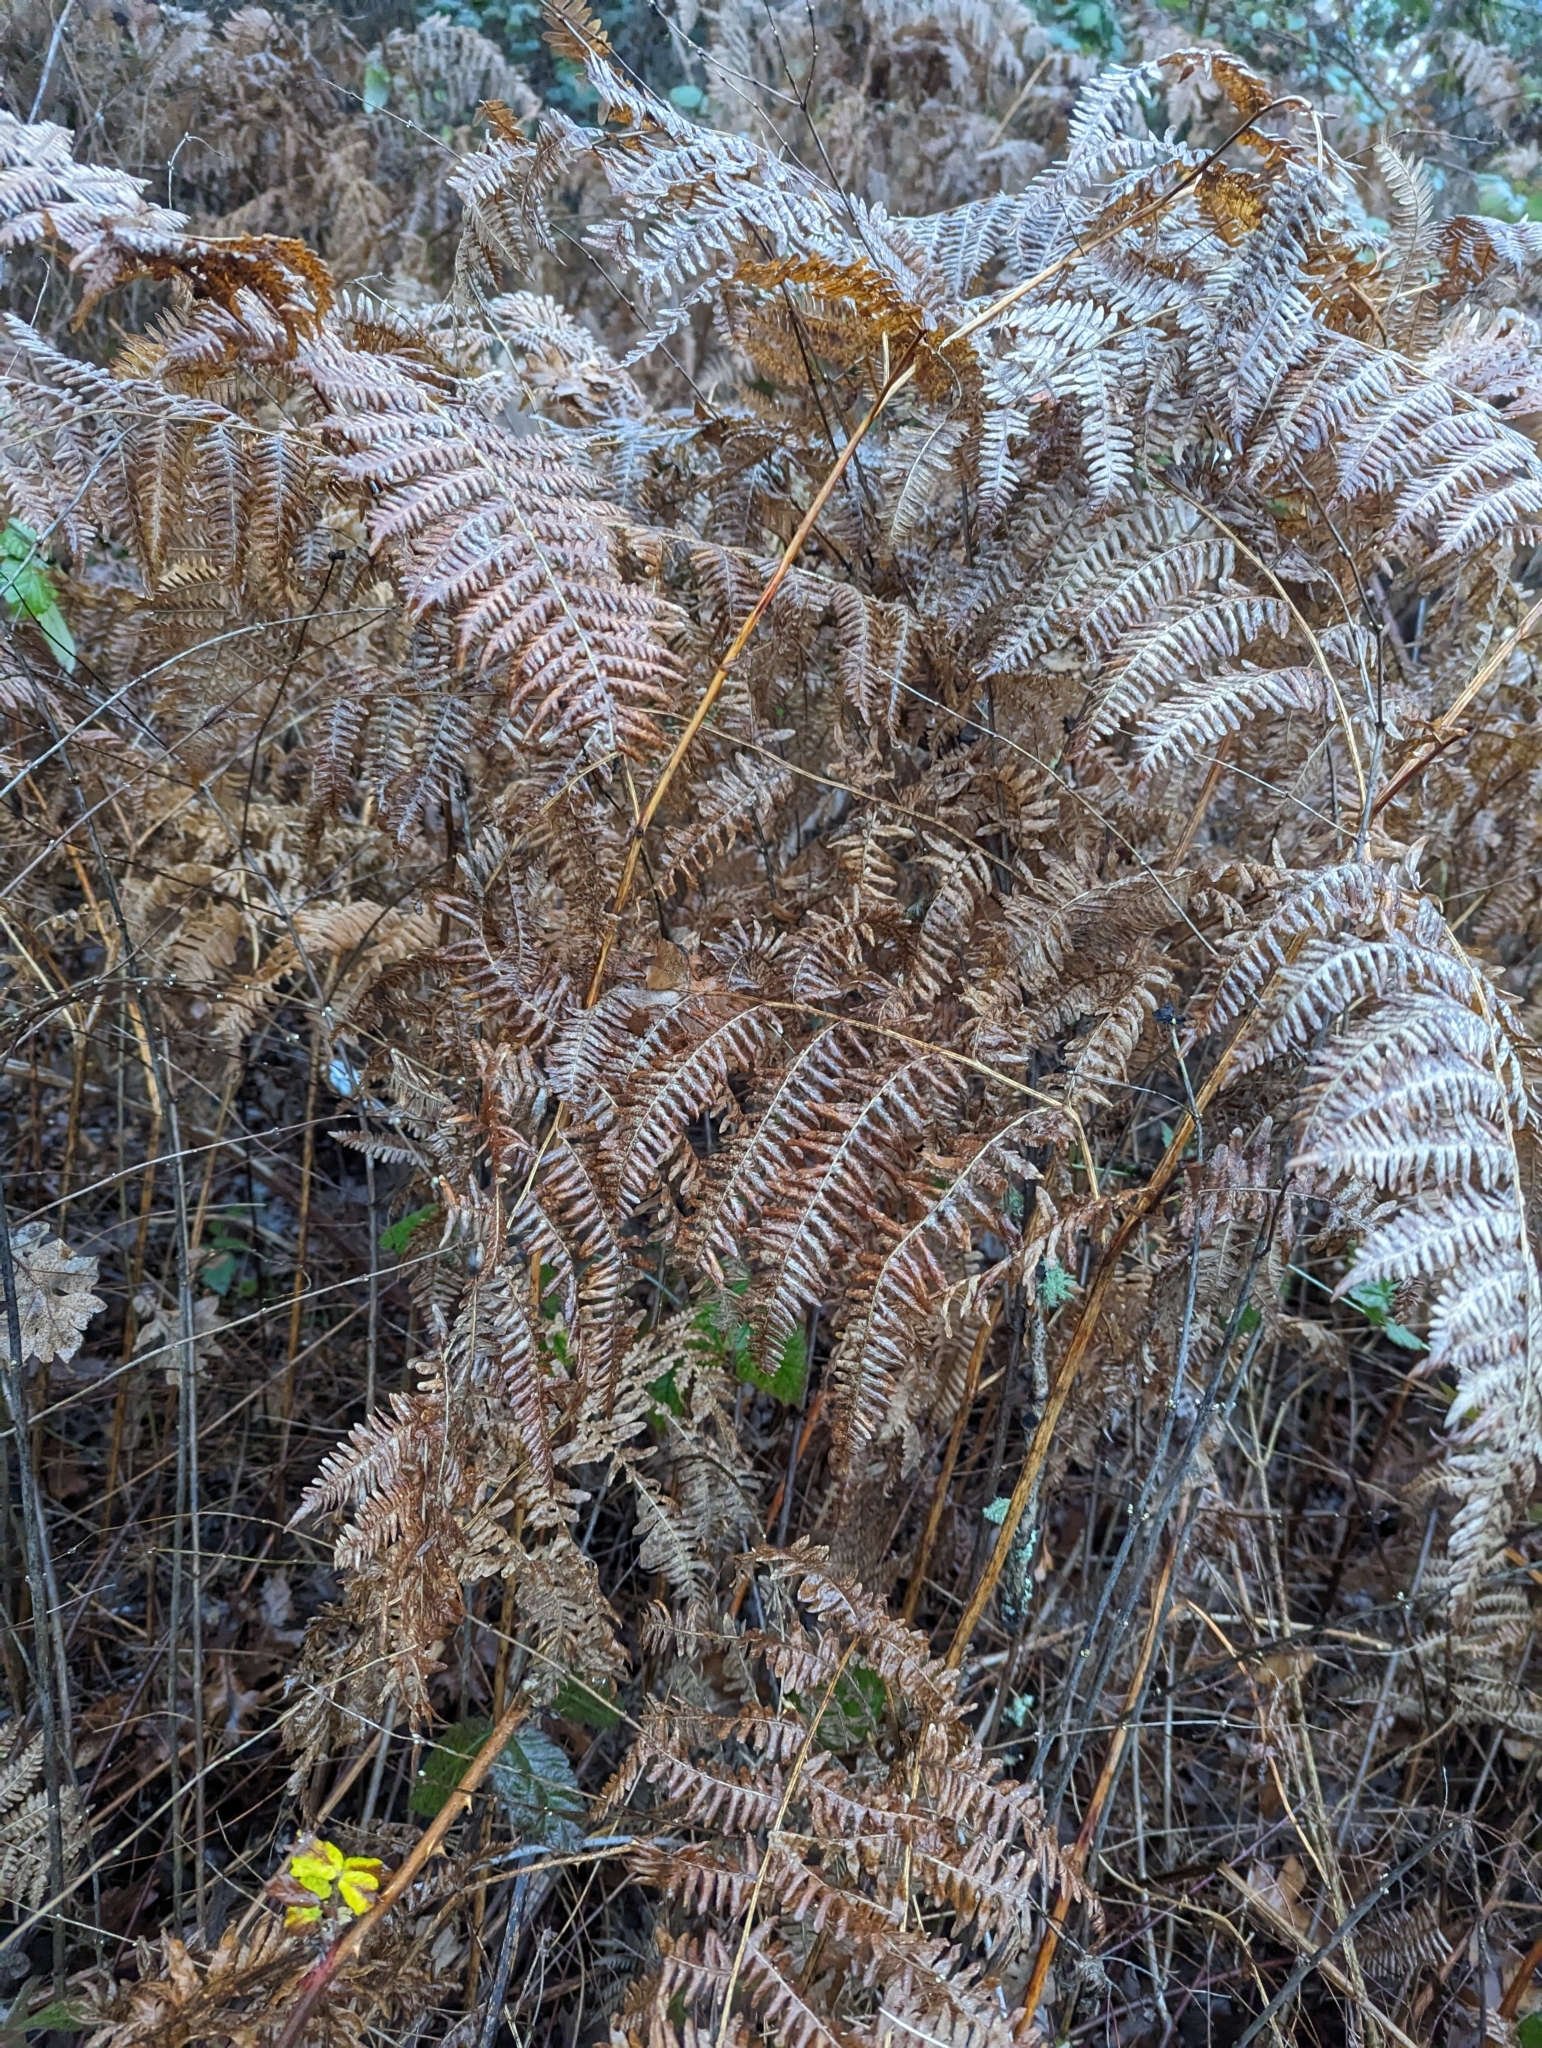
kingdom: Plantae
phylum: Tracheophyta
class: Polypodiopsida
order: Polypodiales
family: Dennstaedtiaceae
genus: Pteridium
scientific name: Pteridium aquilinum
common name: Bracken
